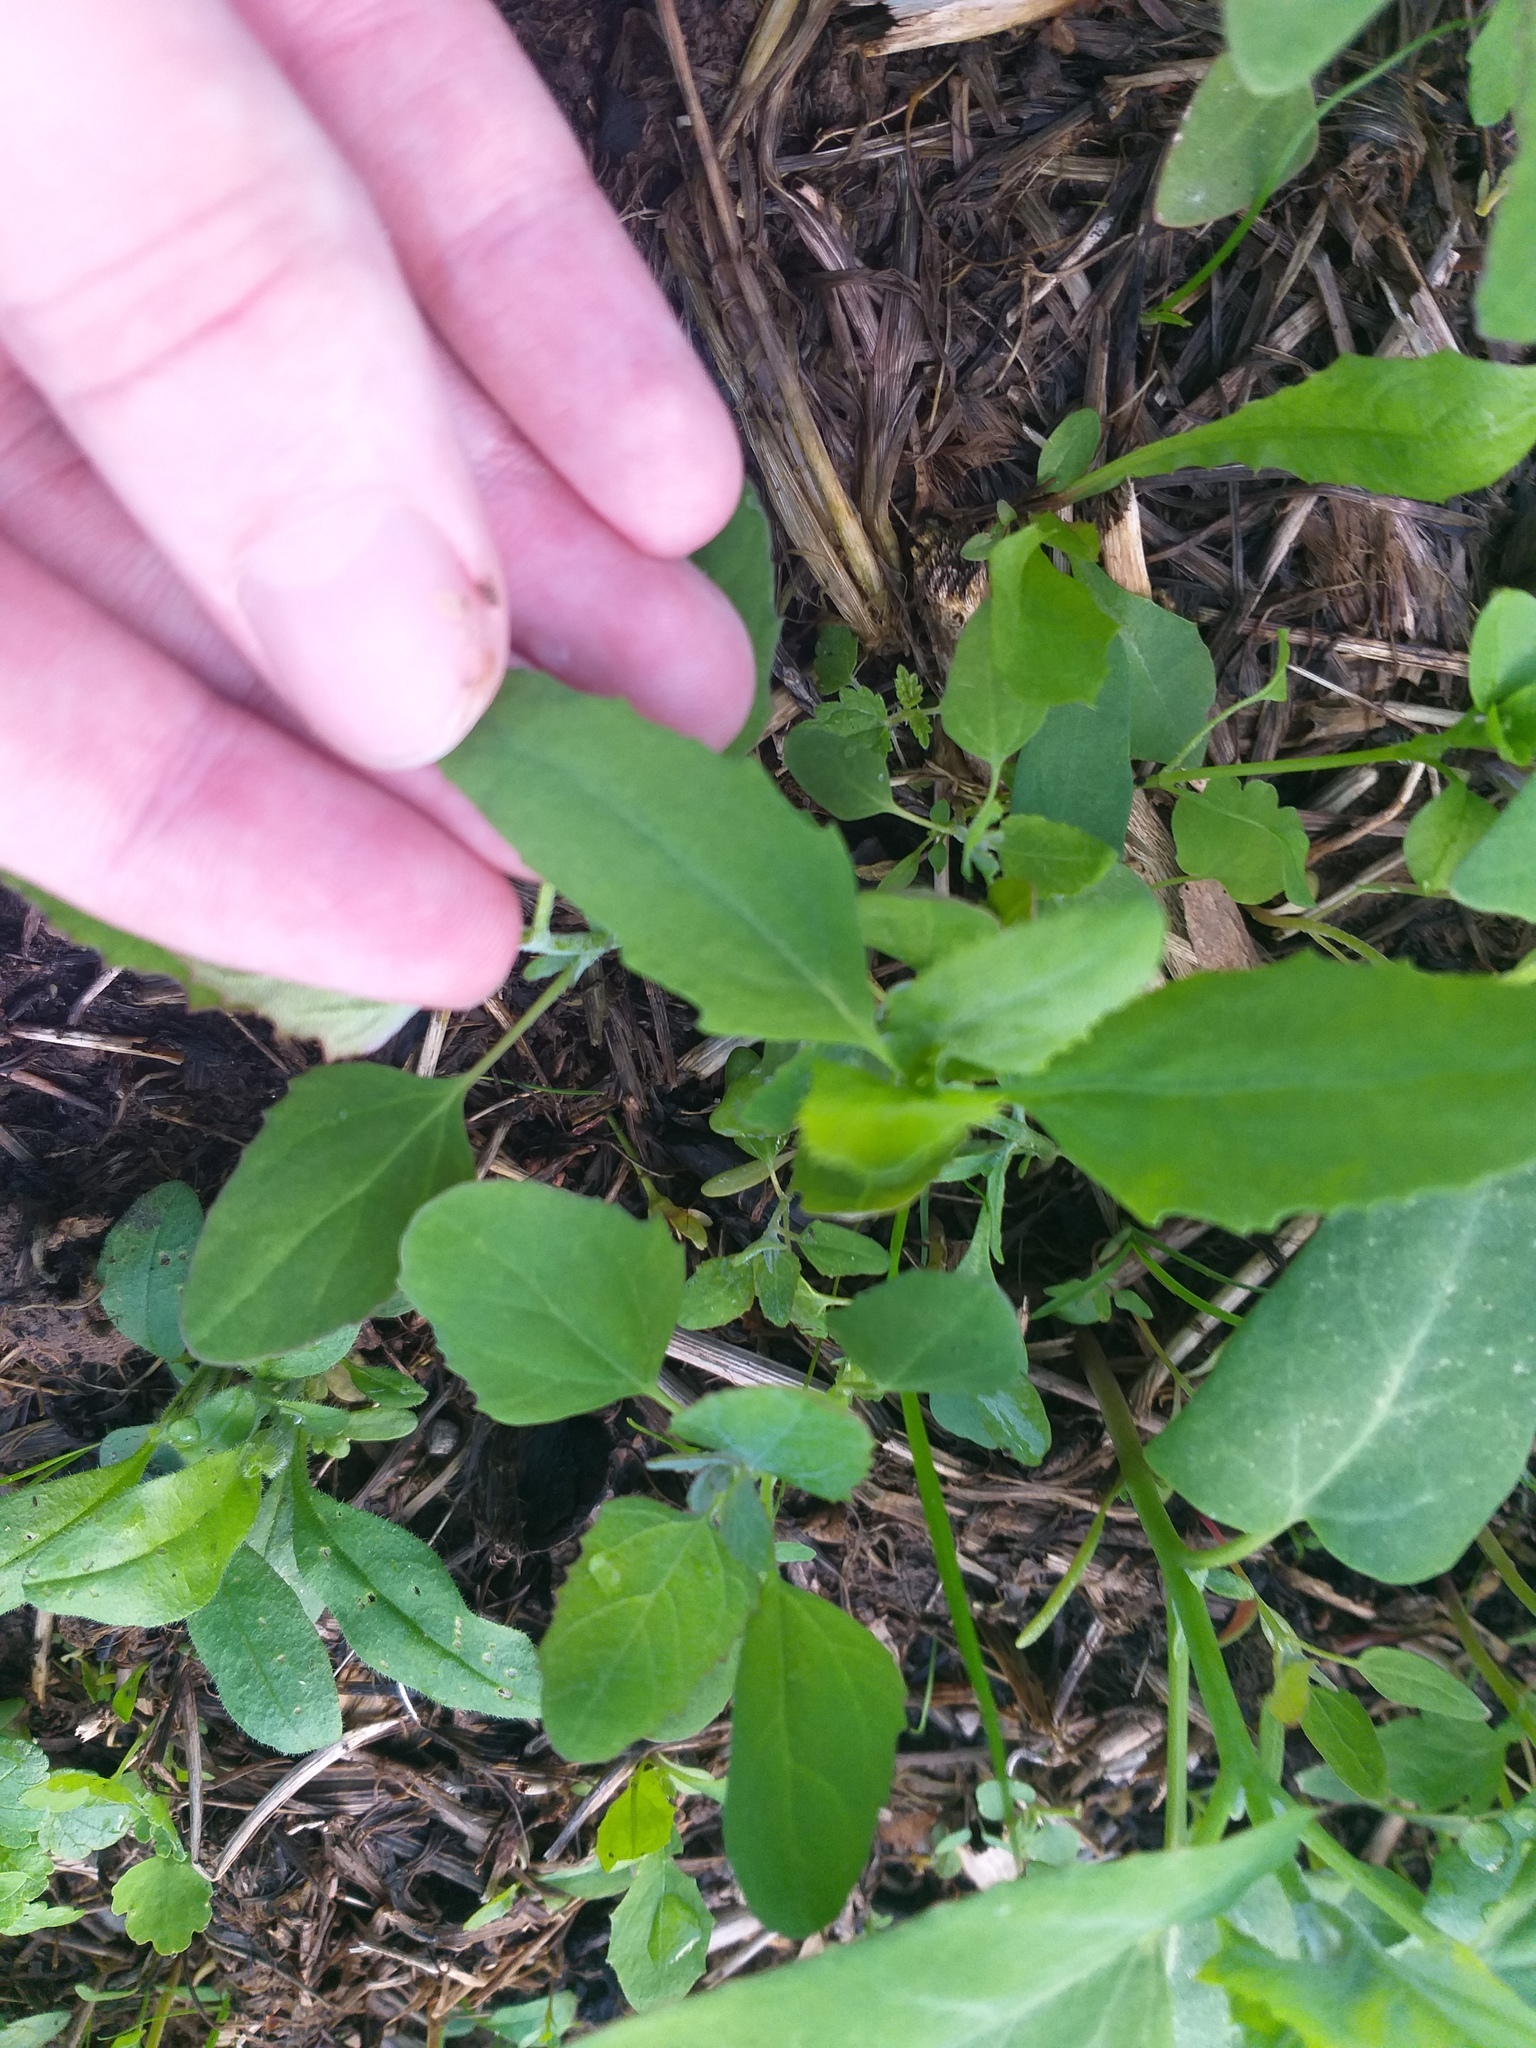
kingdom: Plantae
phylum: Tracheophyta
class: Magnoliopsida
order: Caryophyllales
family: Amaranthaceae
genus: Atriplex
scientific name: Atriplex patula
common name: Common orache
